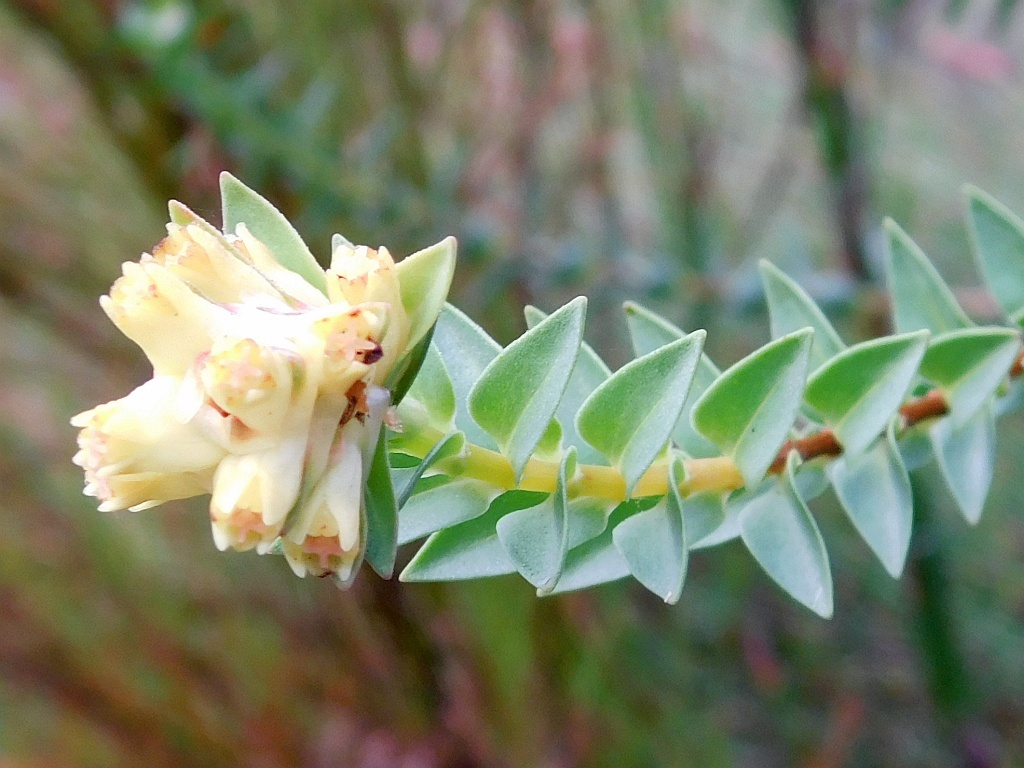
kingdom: Plantae
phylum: Tracheophyta
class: Magnoliopsida
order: Myrtales
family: Penaeaceae
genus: Penaea
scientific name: Penaea cneorum
